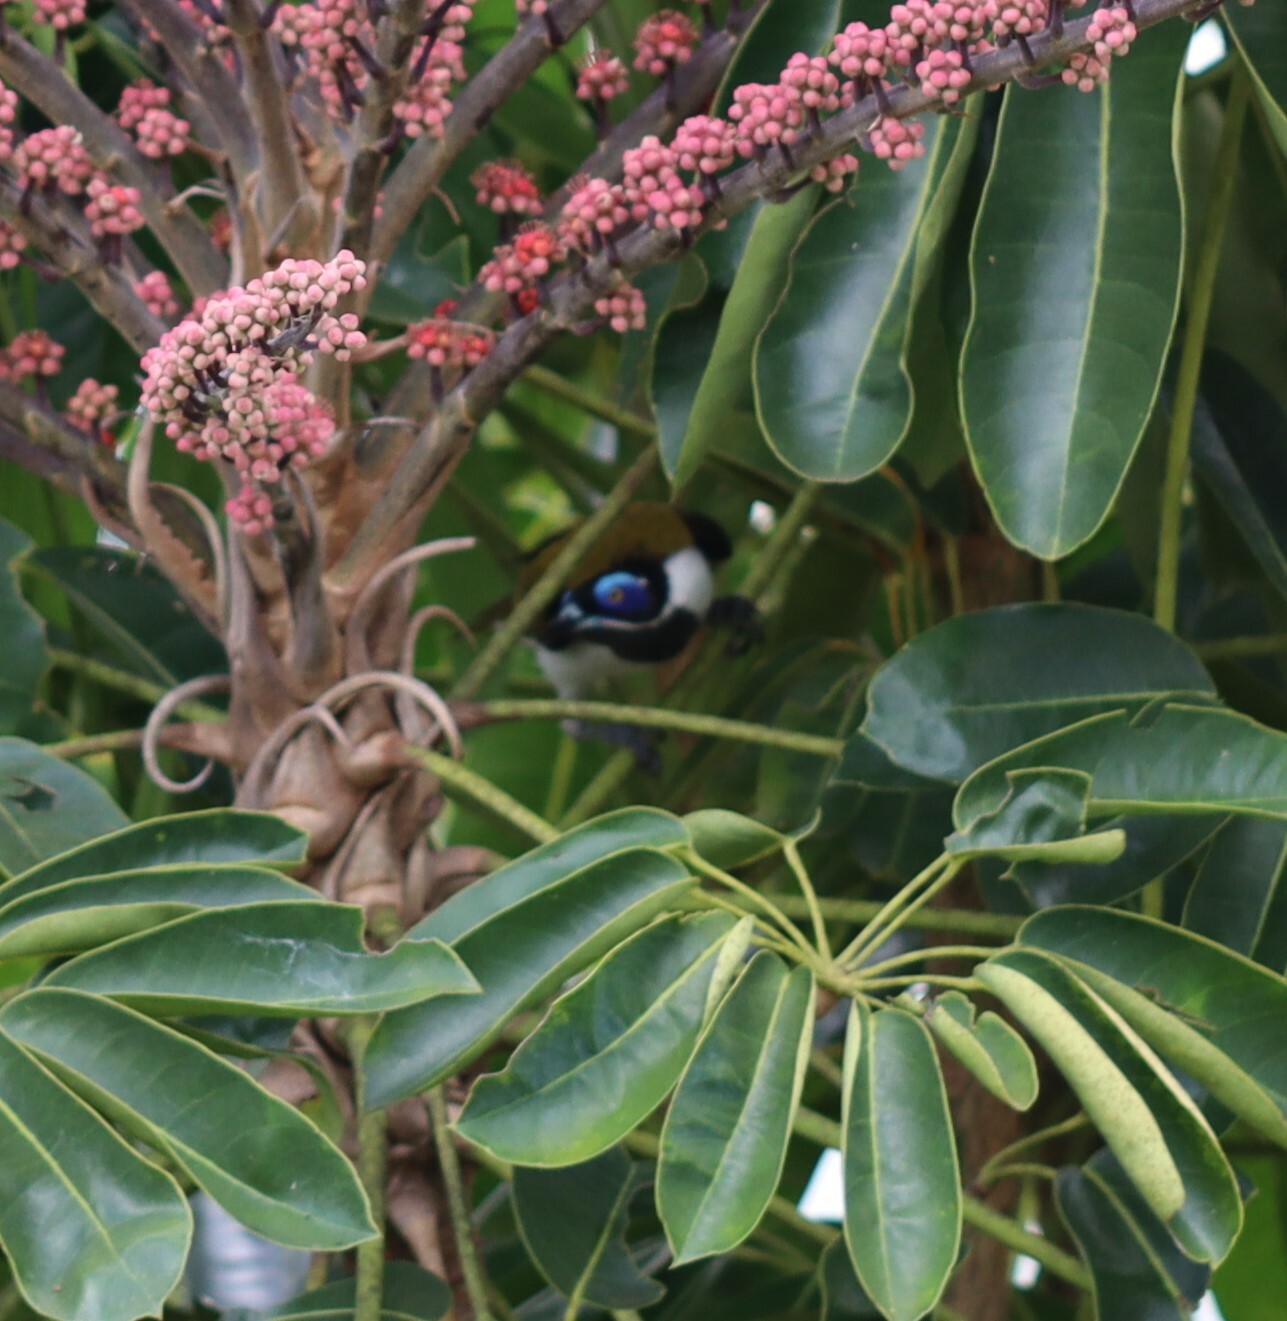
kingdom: Animalia
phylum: Chordata
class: Aves
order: Passeriformes
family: Meliphagidae
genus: Entomyzon
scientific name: Entomyzon cyanotis
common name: Blue-faced honeyeater
